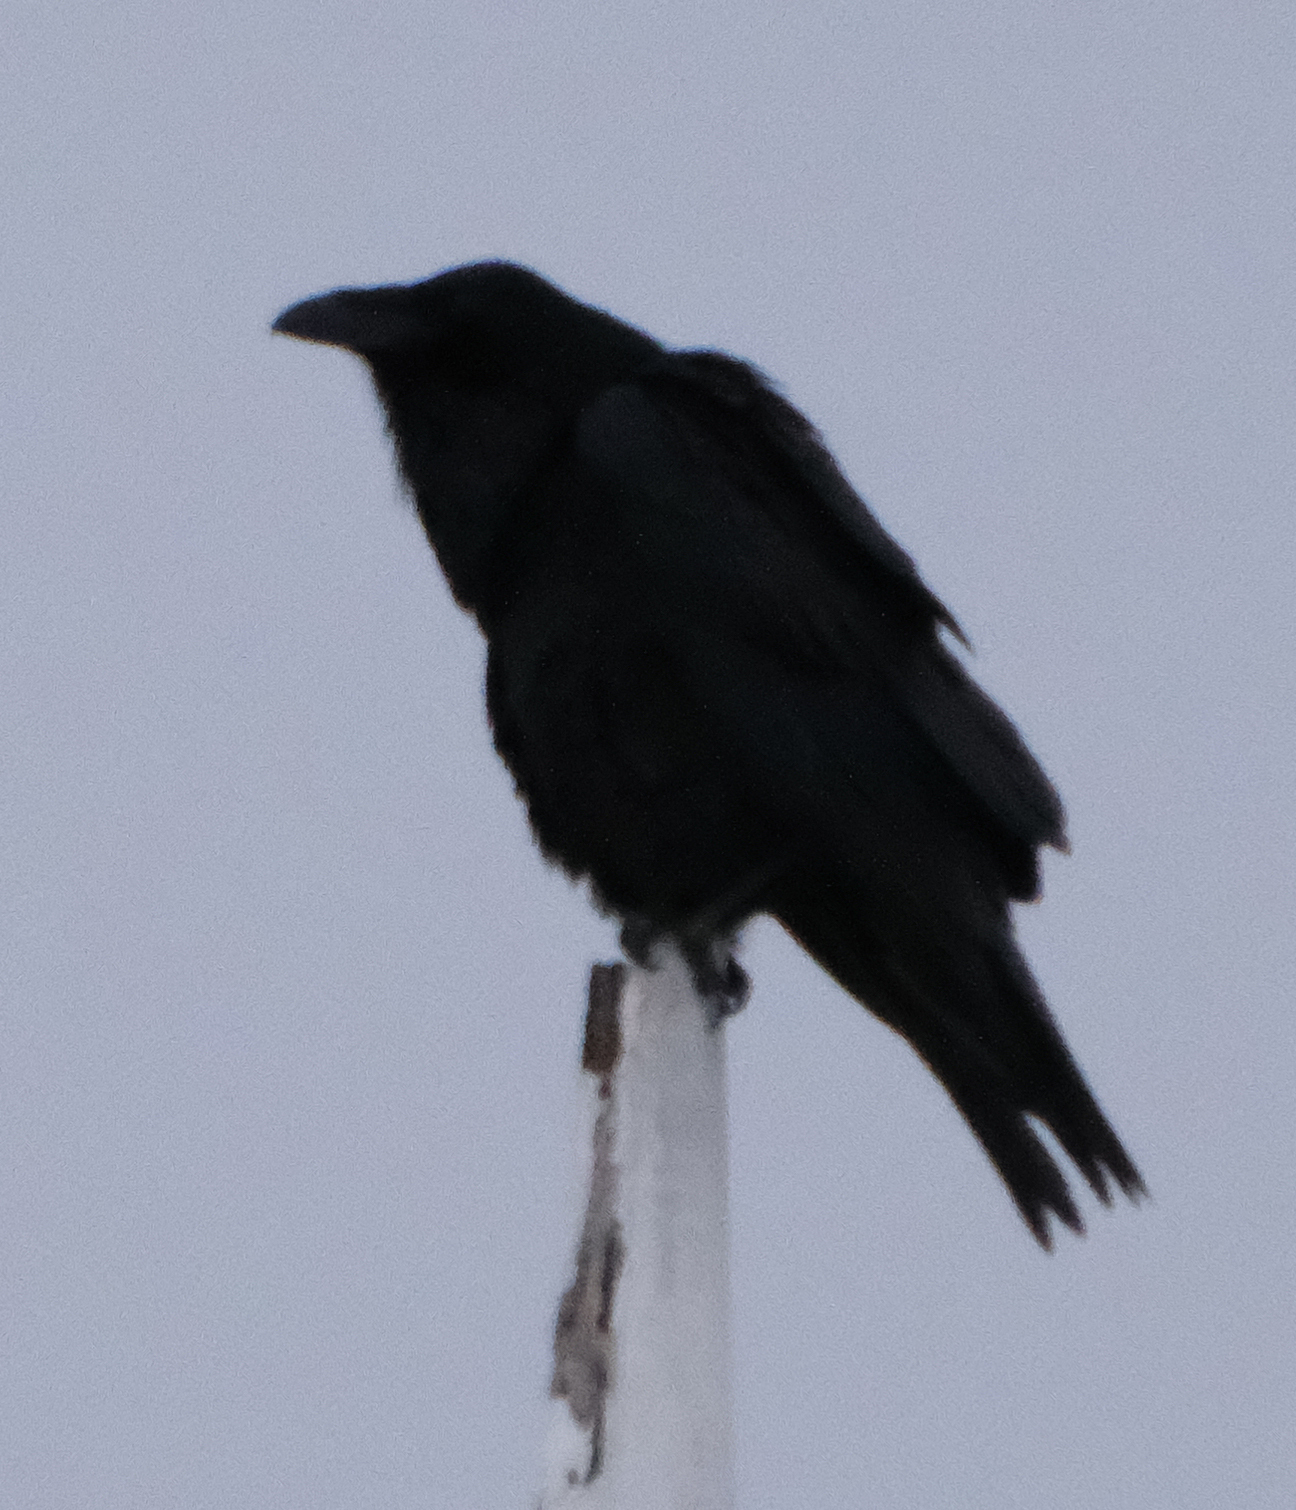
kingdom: Animalia
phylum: Chordata
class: Aves
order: Passeriformes
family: Corvidae
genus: Corvus
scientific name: Corvus corax
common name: Common raven
